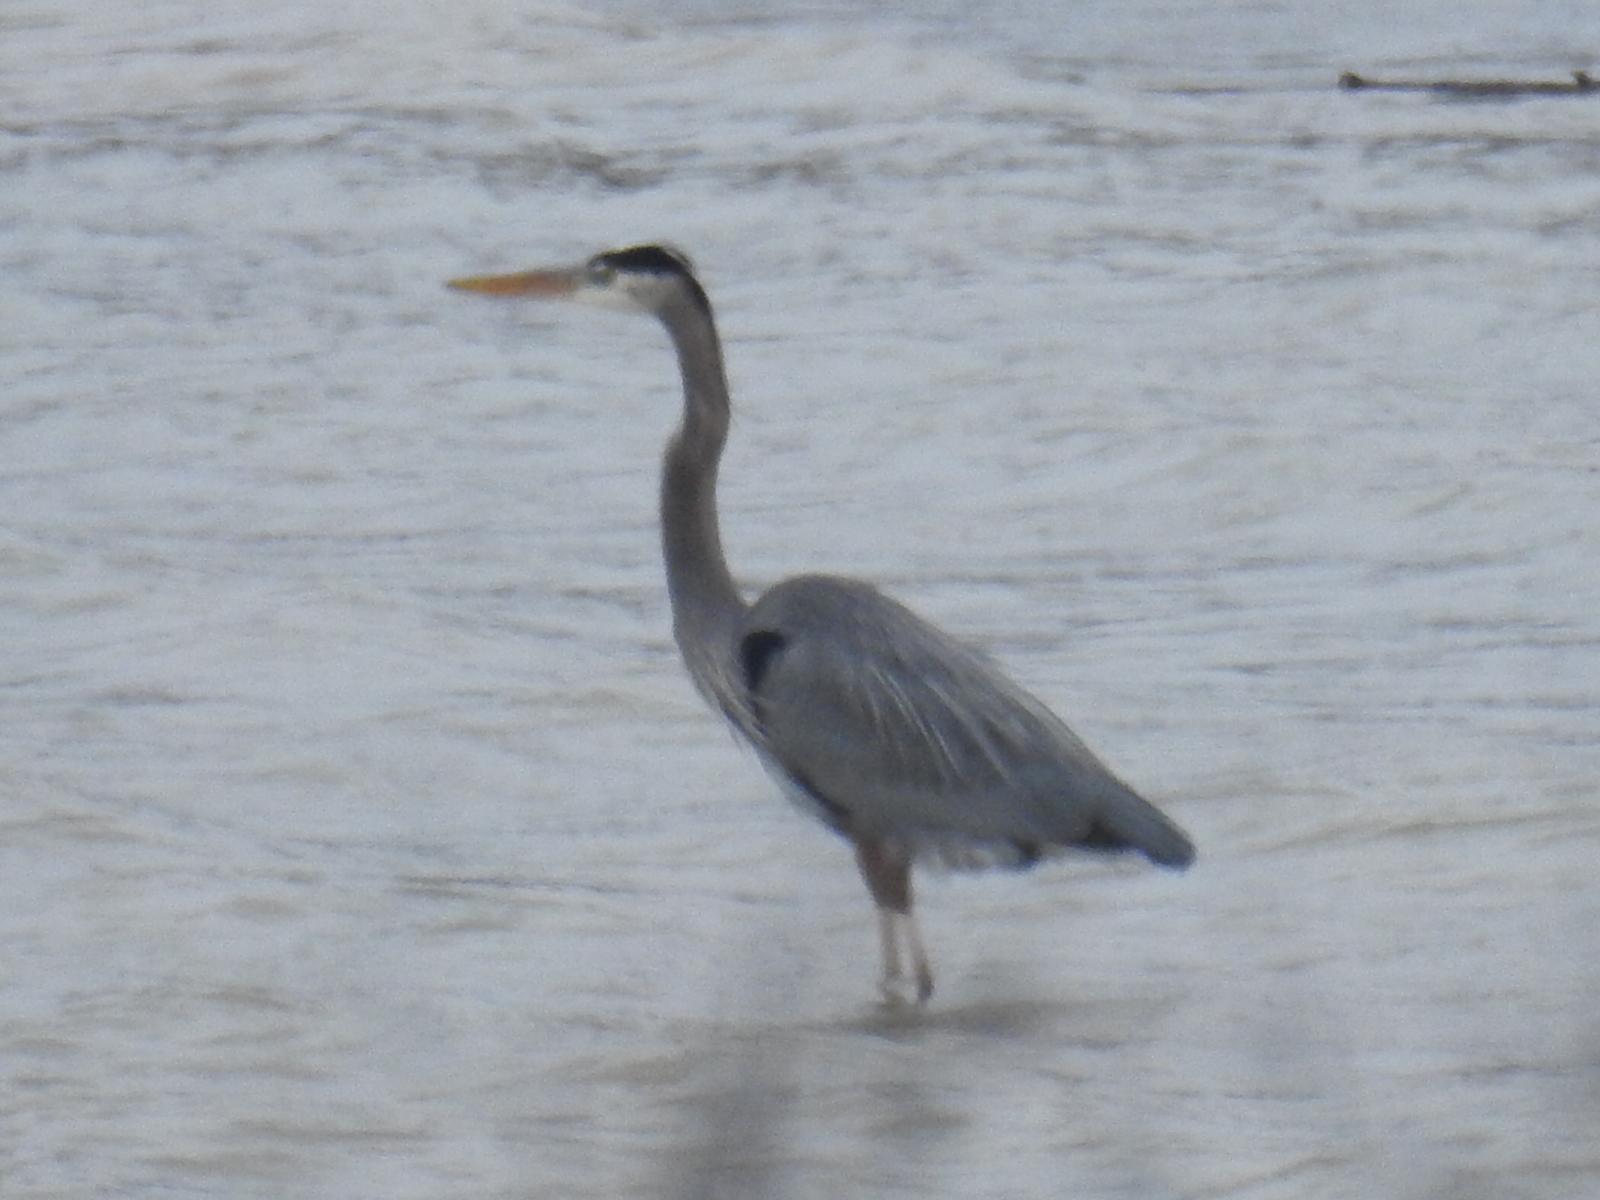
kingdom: Animalia
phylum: Chordata
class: Aves
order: Pelecaniformes
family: Ardeidae
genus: Ardea
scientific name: Ardea herodias
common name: Great blue heron
